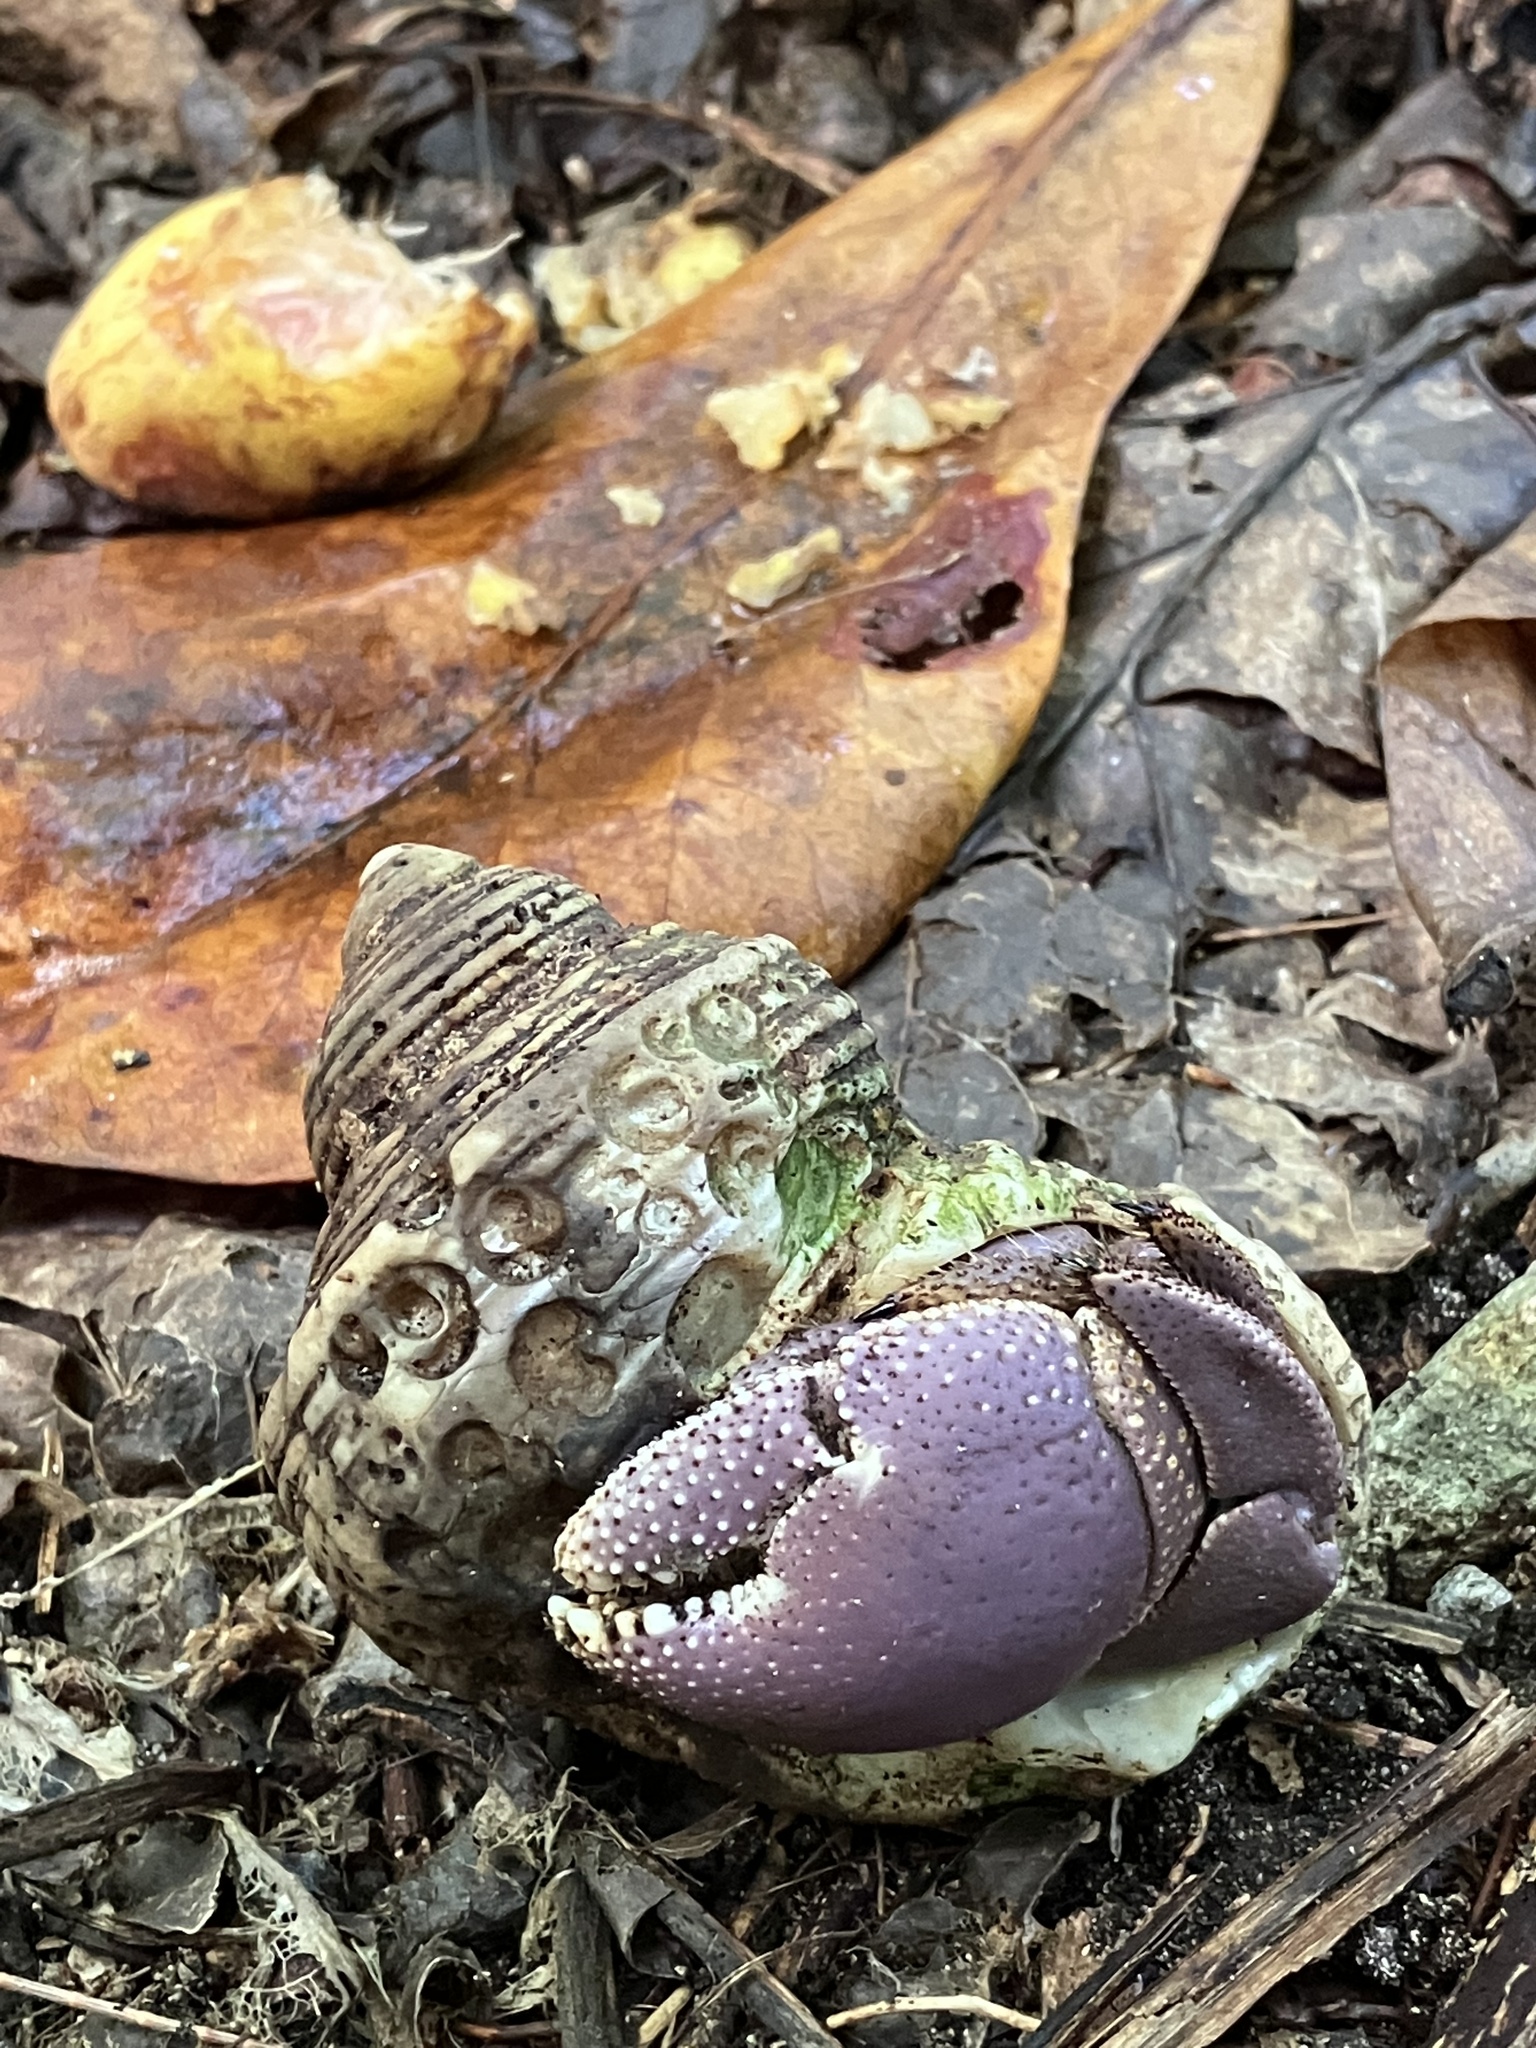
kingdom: Animalia
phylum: Arthropoda
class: Malacostraca
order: Decapoda
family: Coenobitidae
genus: Coenobita
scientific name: Coenobita brevimanus
